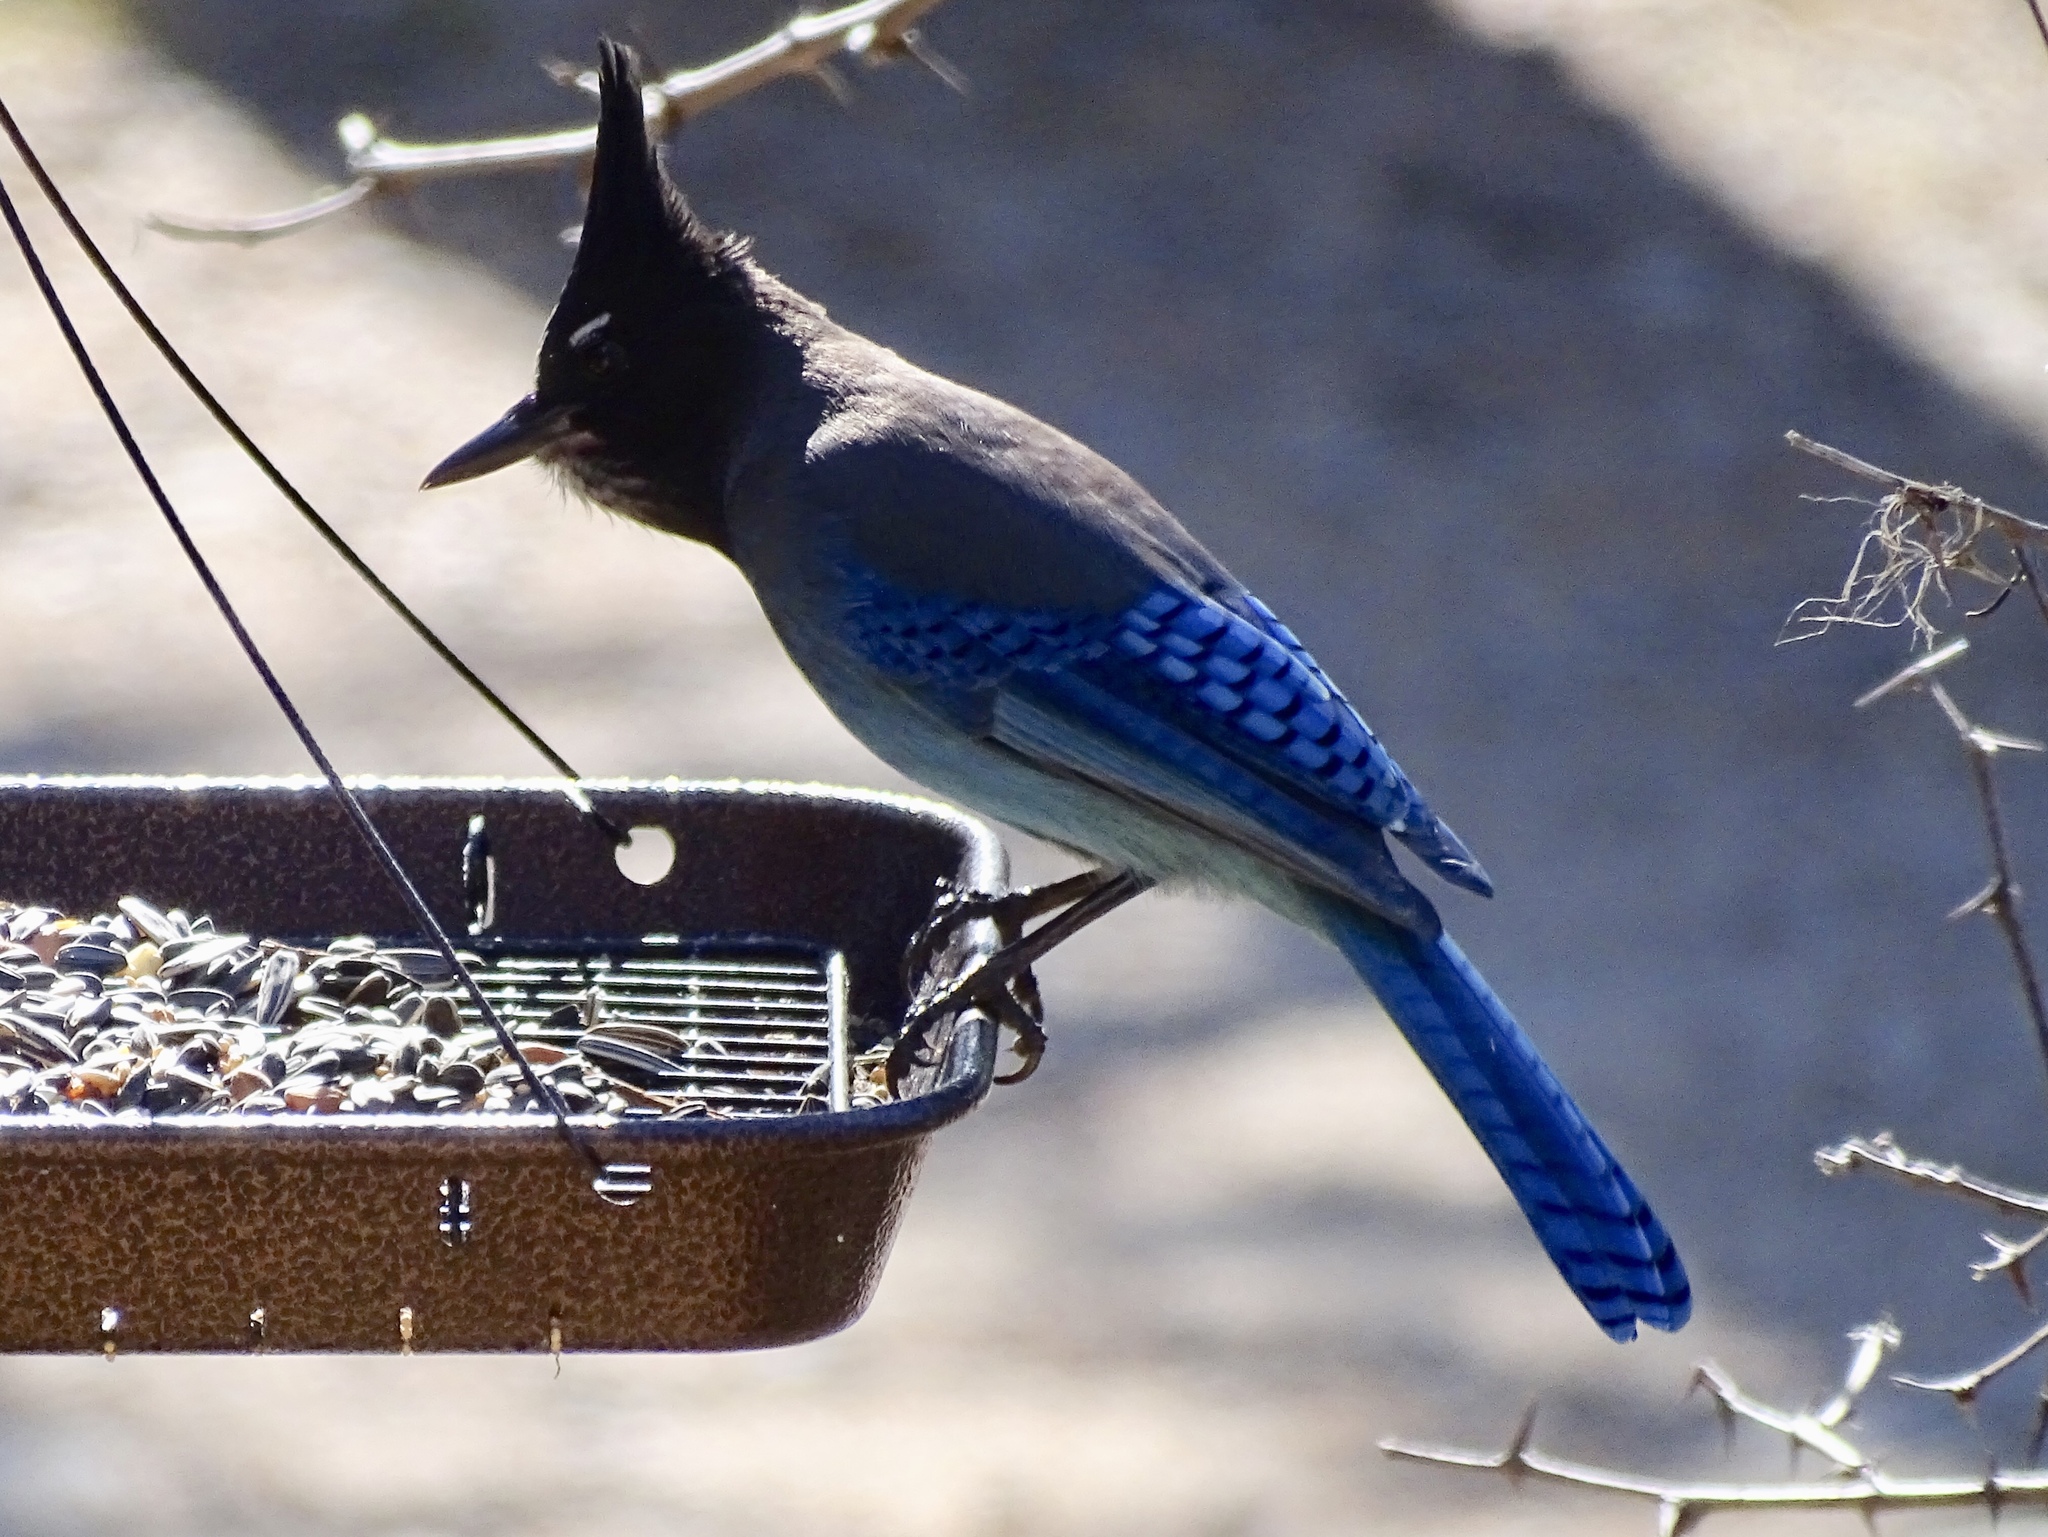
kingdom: Animalia
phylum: Chordata
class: Aves
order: Passeriformes
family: Corvidae
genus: Cyanocitta
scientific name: Cyanocitta stelleri
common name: Steller's jay
